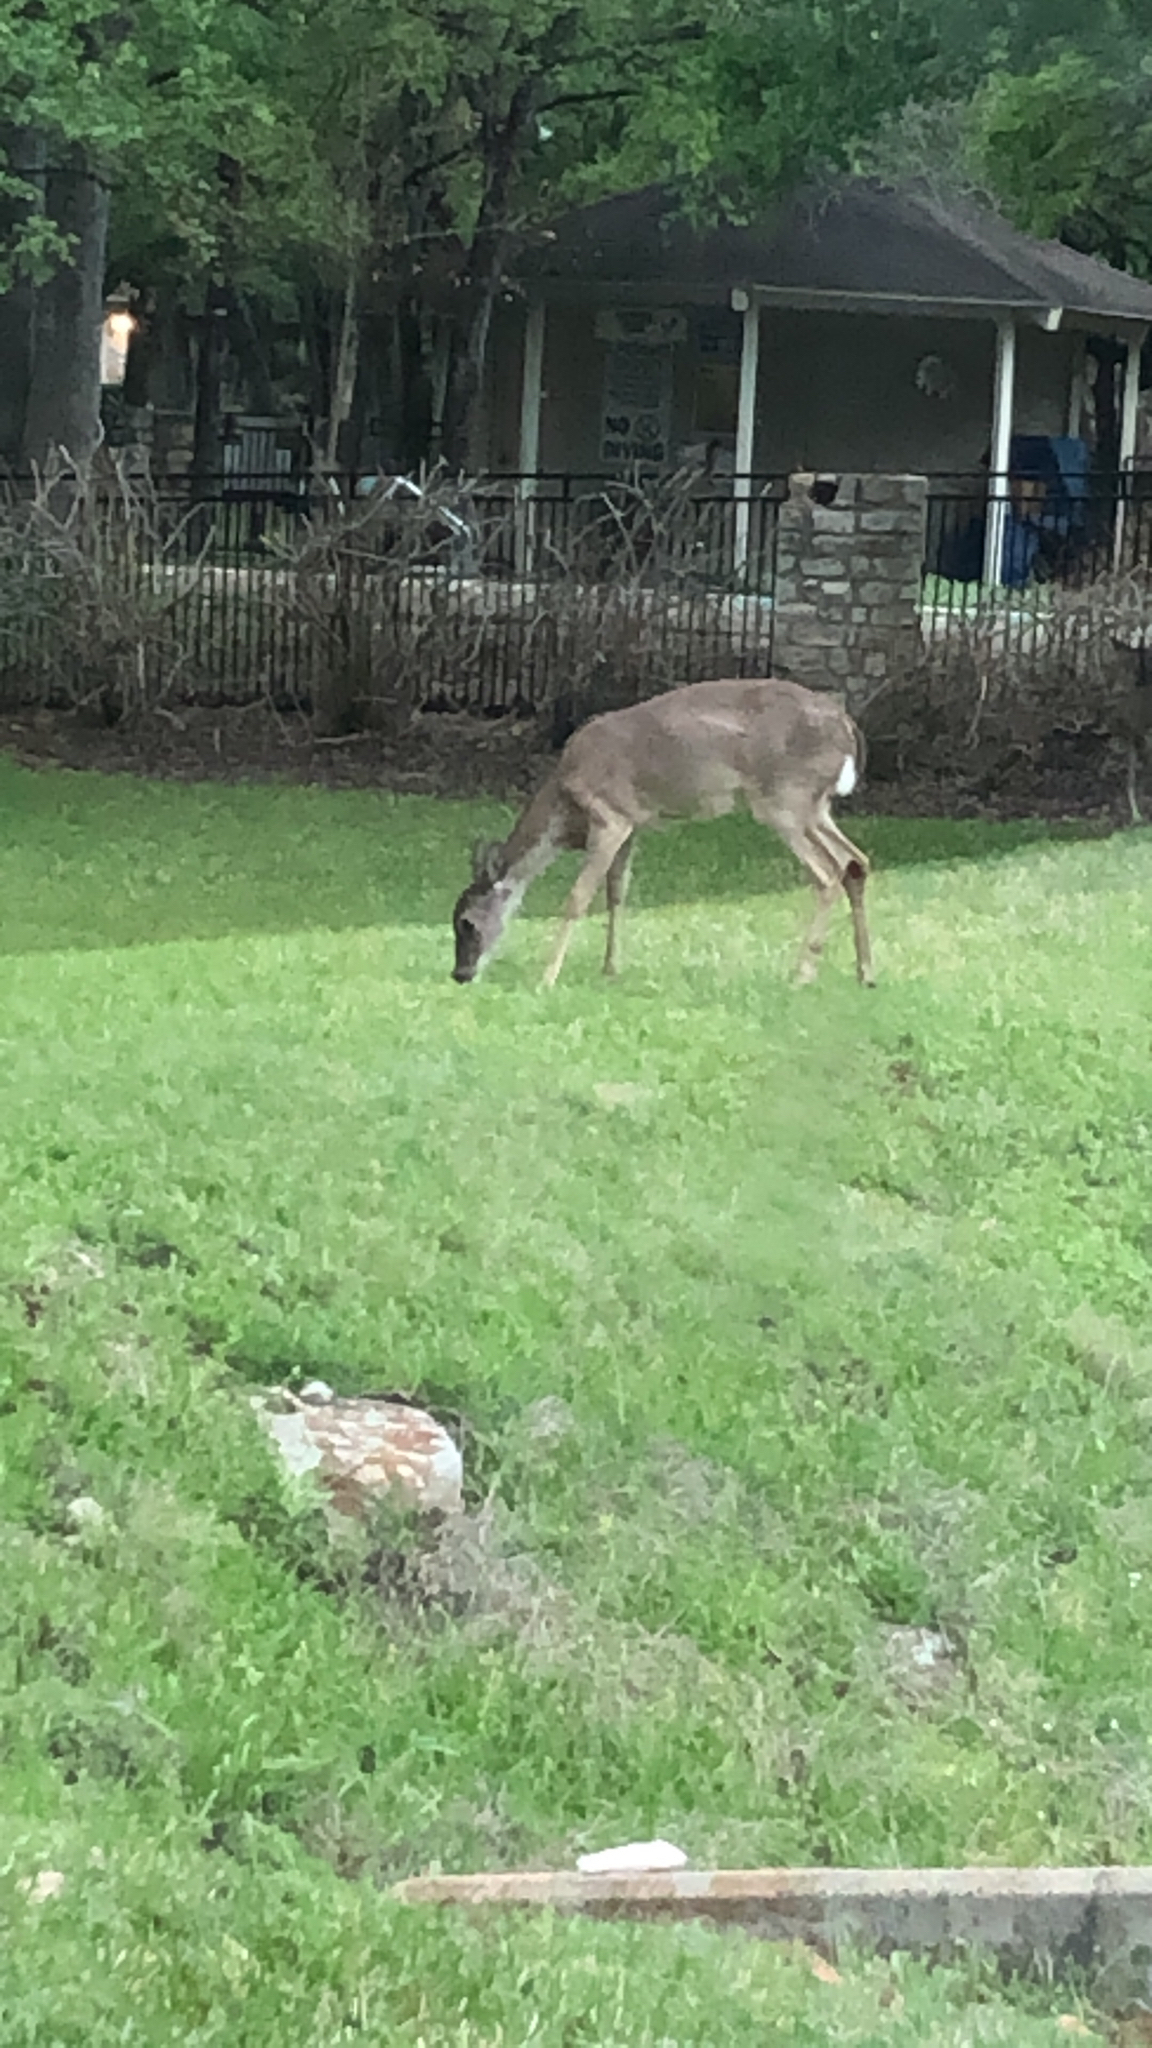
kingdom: Animalia
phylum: Chordata
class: Mammalia
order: Artiodactyla
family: Cervidae
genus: Odocoileus
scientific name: Odocoileus virginianus
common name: White-tailed deer
